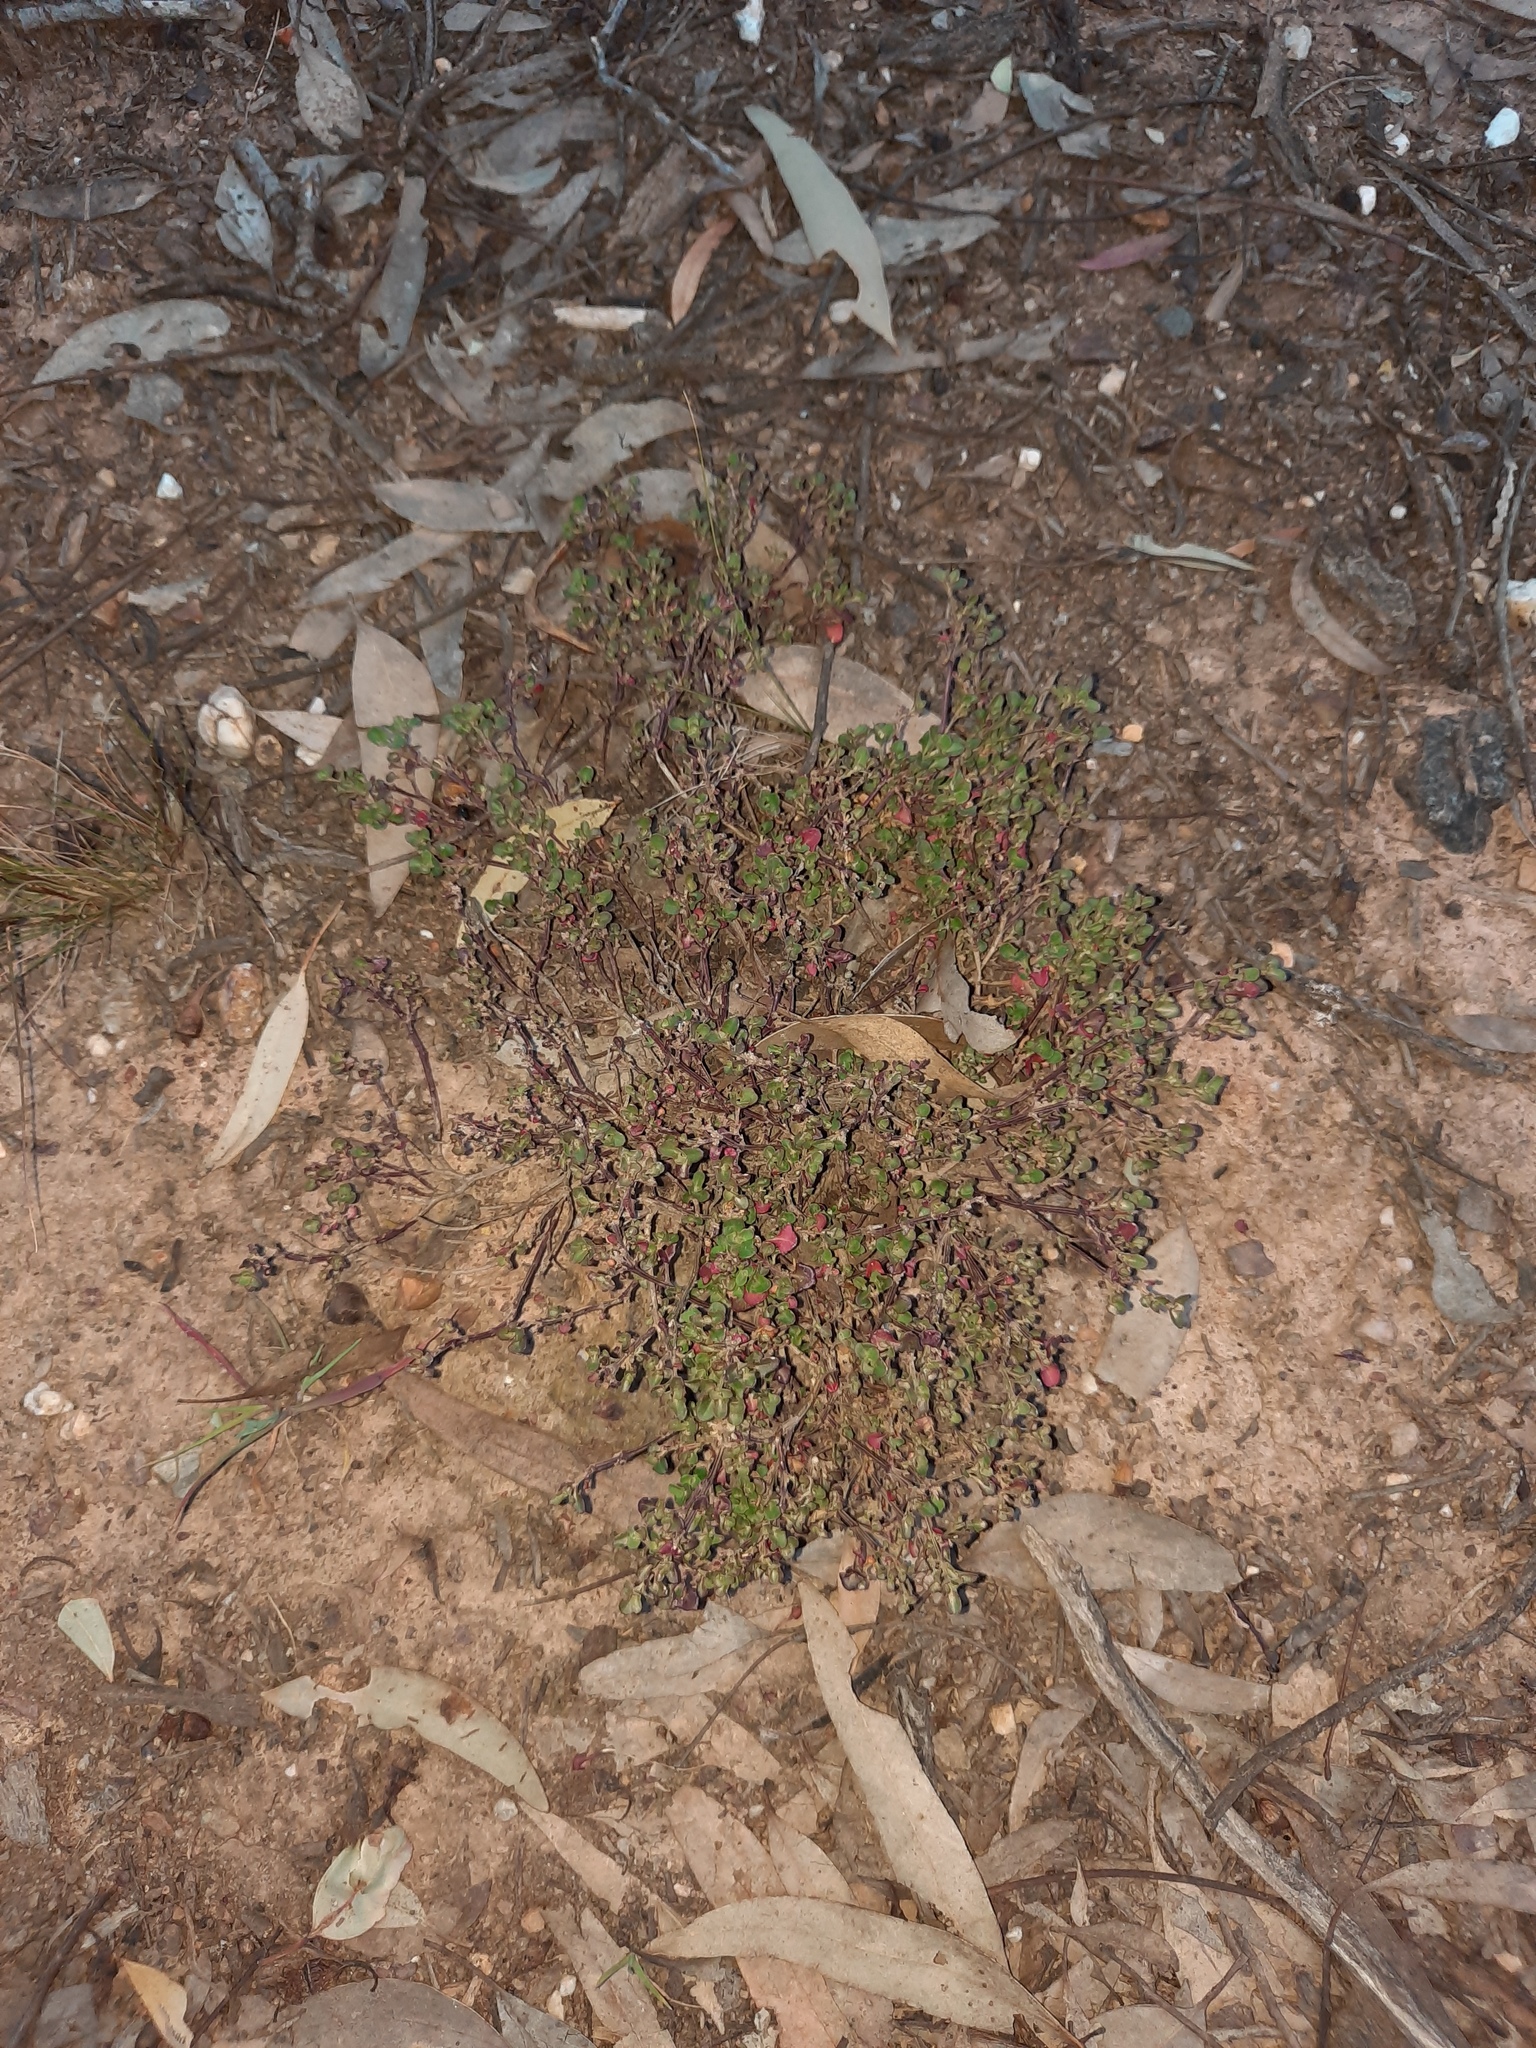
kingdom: Plantae
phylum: Tracheophyta
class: Magnoliopsida
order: Caryophyllales
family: Amaranthaceae
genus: Chenopodium
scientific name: Chenopodium robertianum
